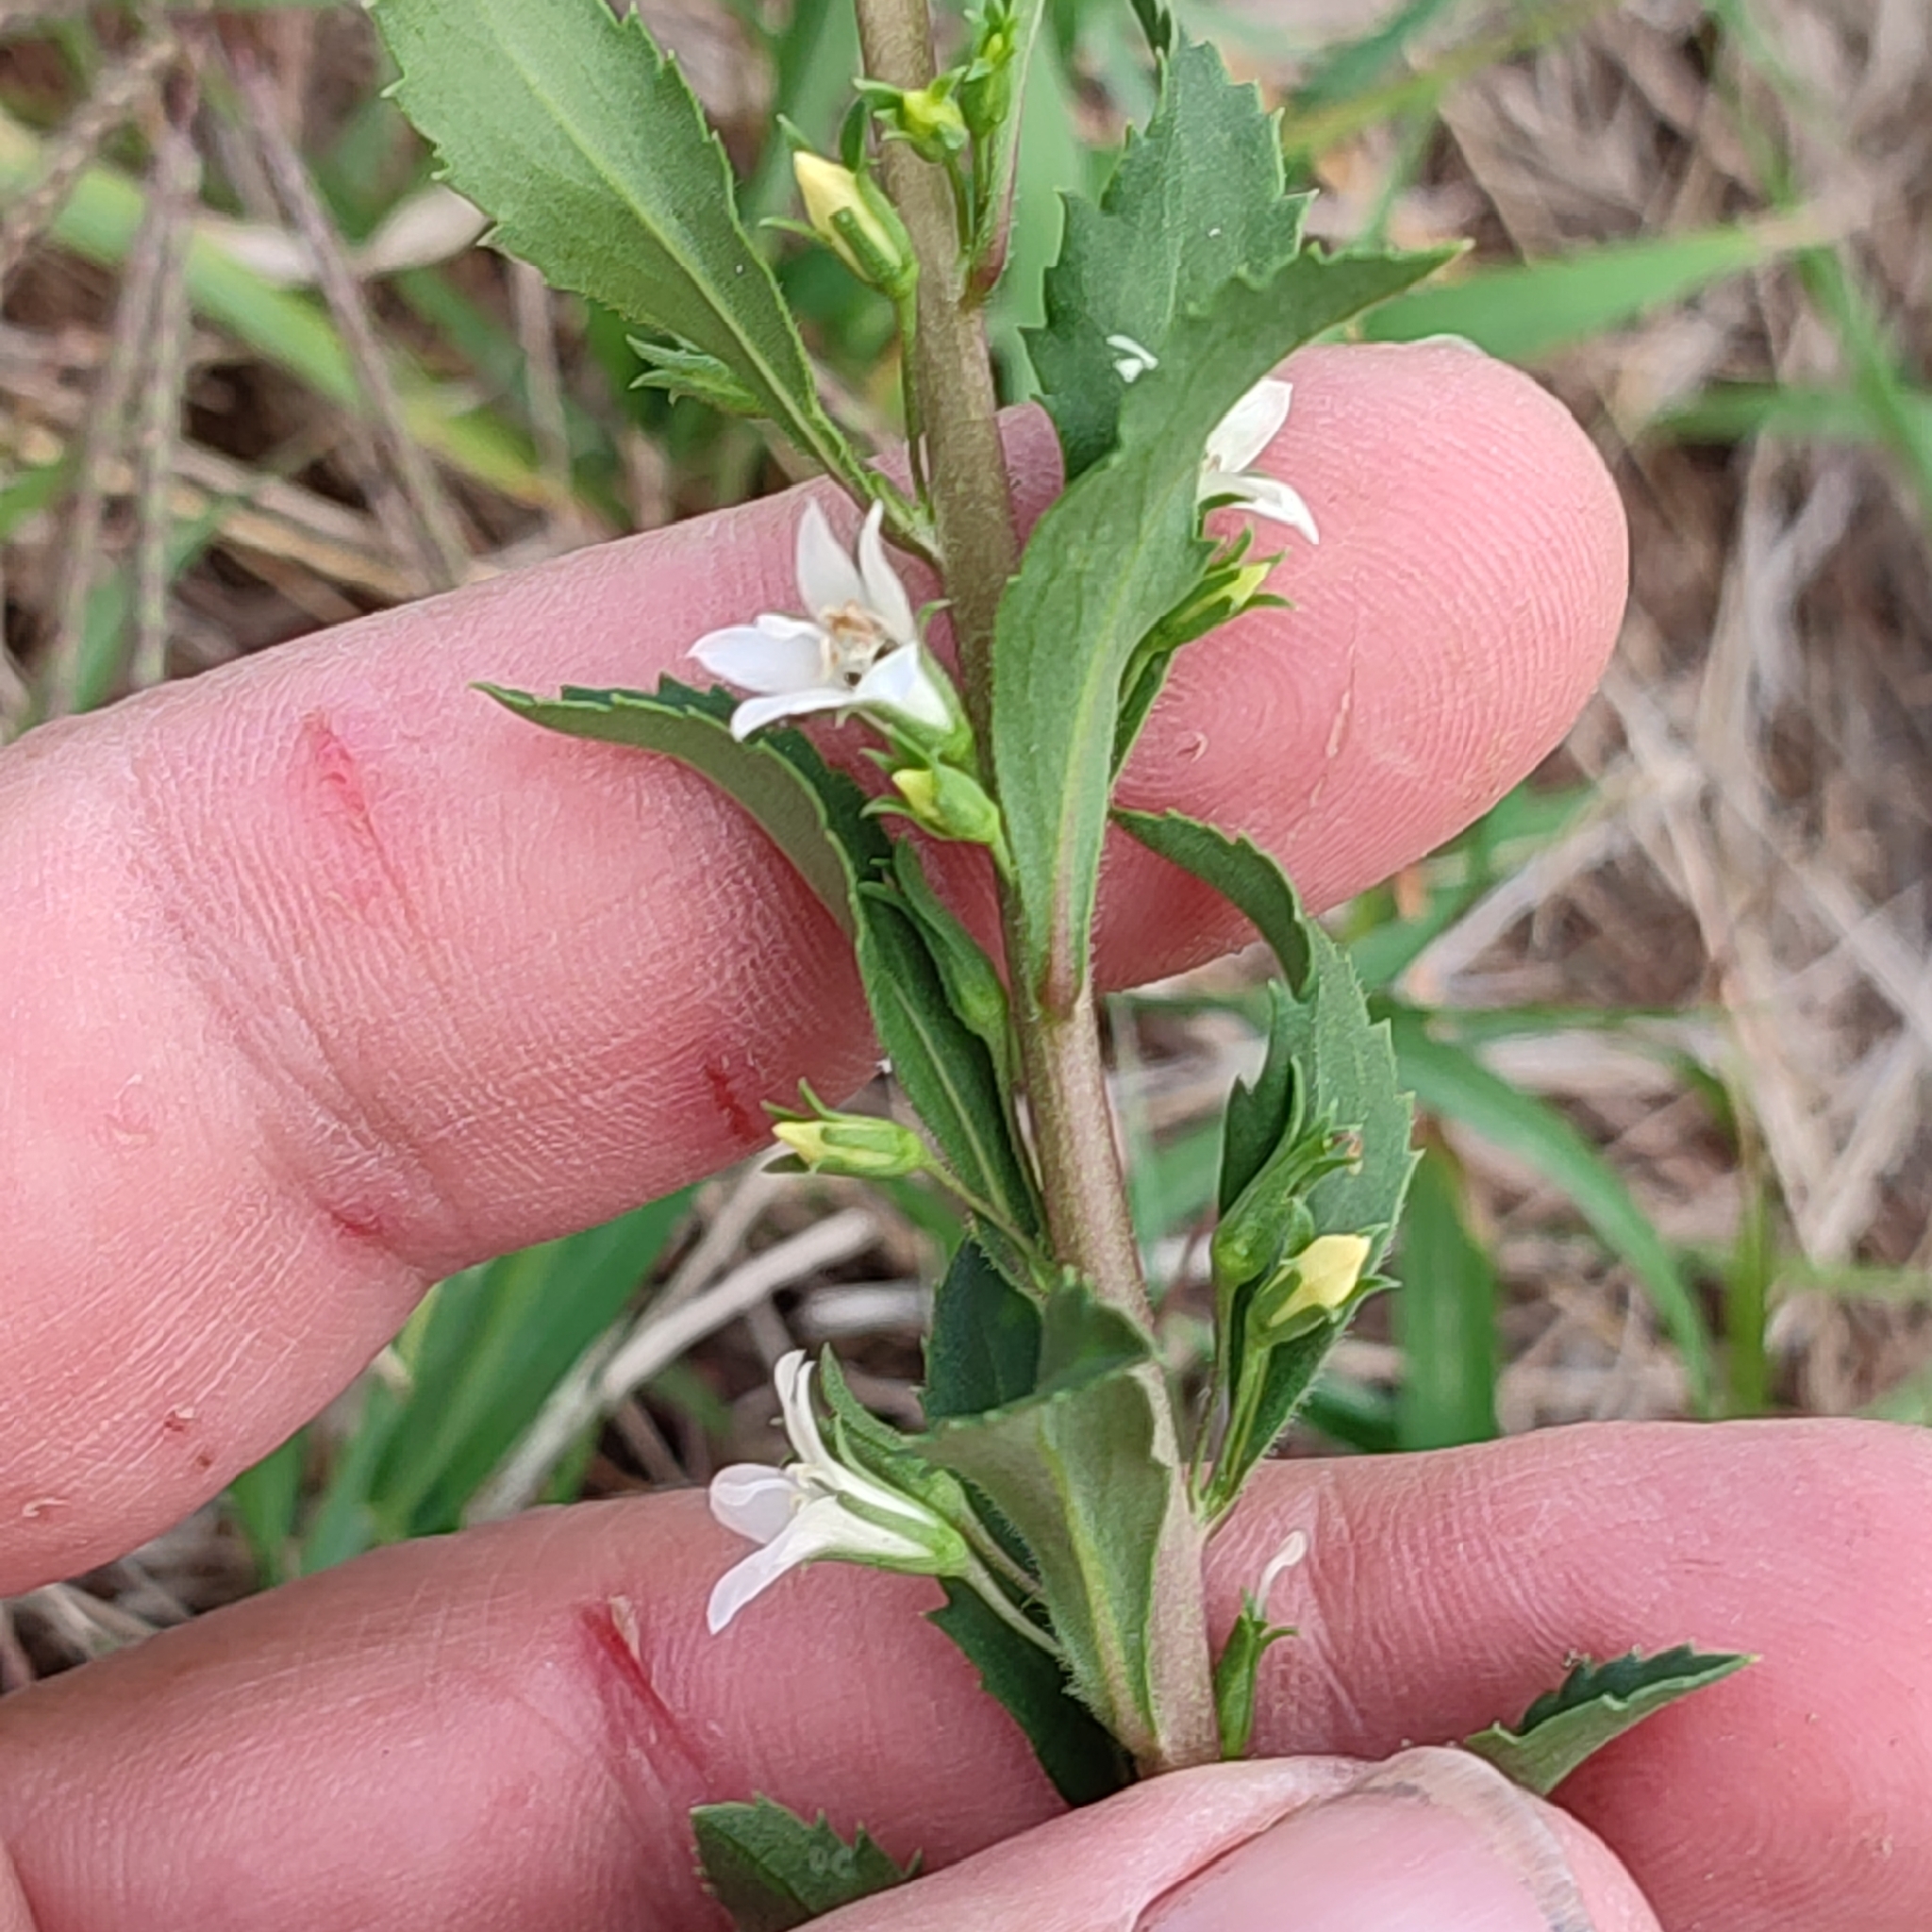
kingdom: Plantae
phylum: Tracheophyta
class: Magnoliopsida
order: Lamiales
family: Scrophulariaceae
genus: Capraria
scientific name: Capraria biflora
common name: Goatweed
